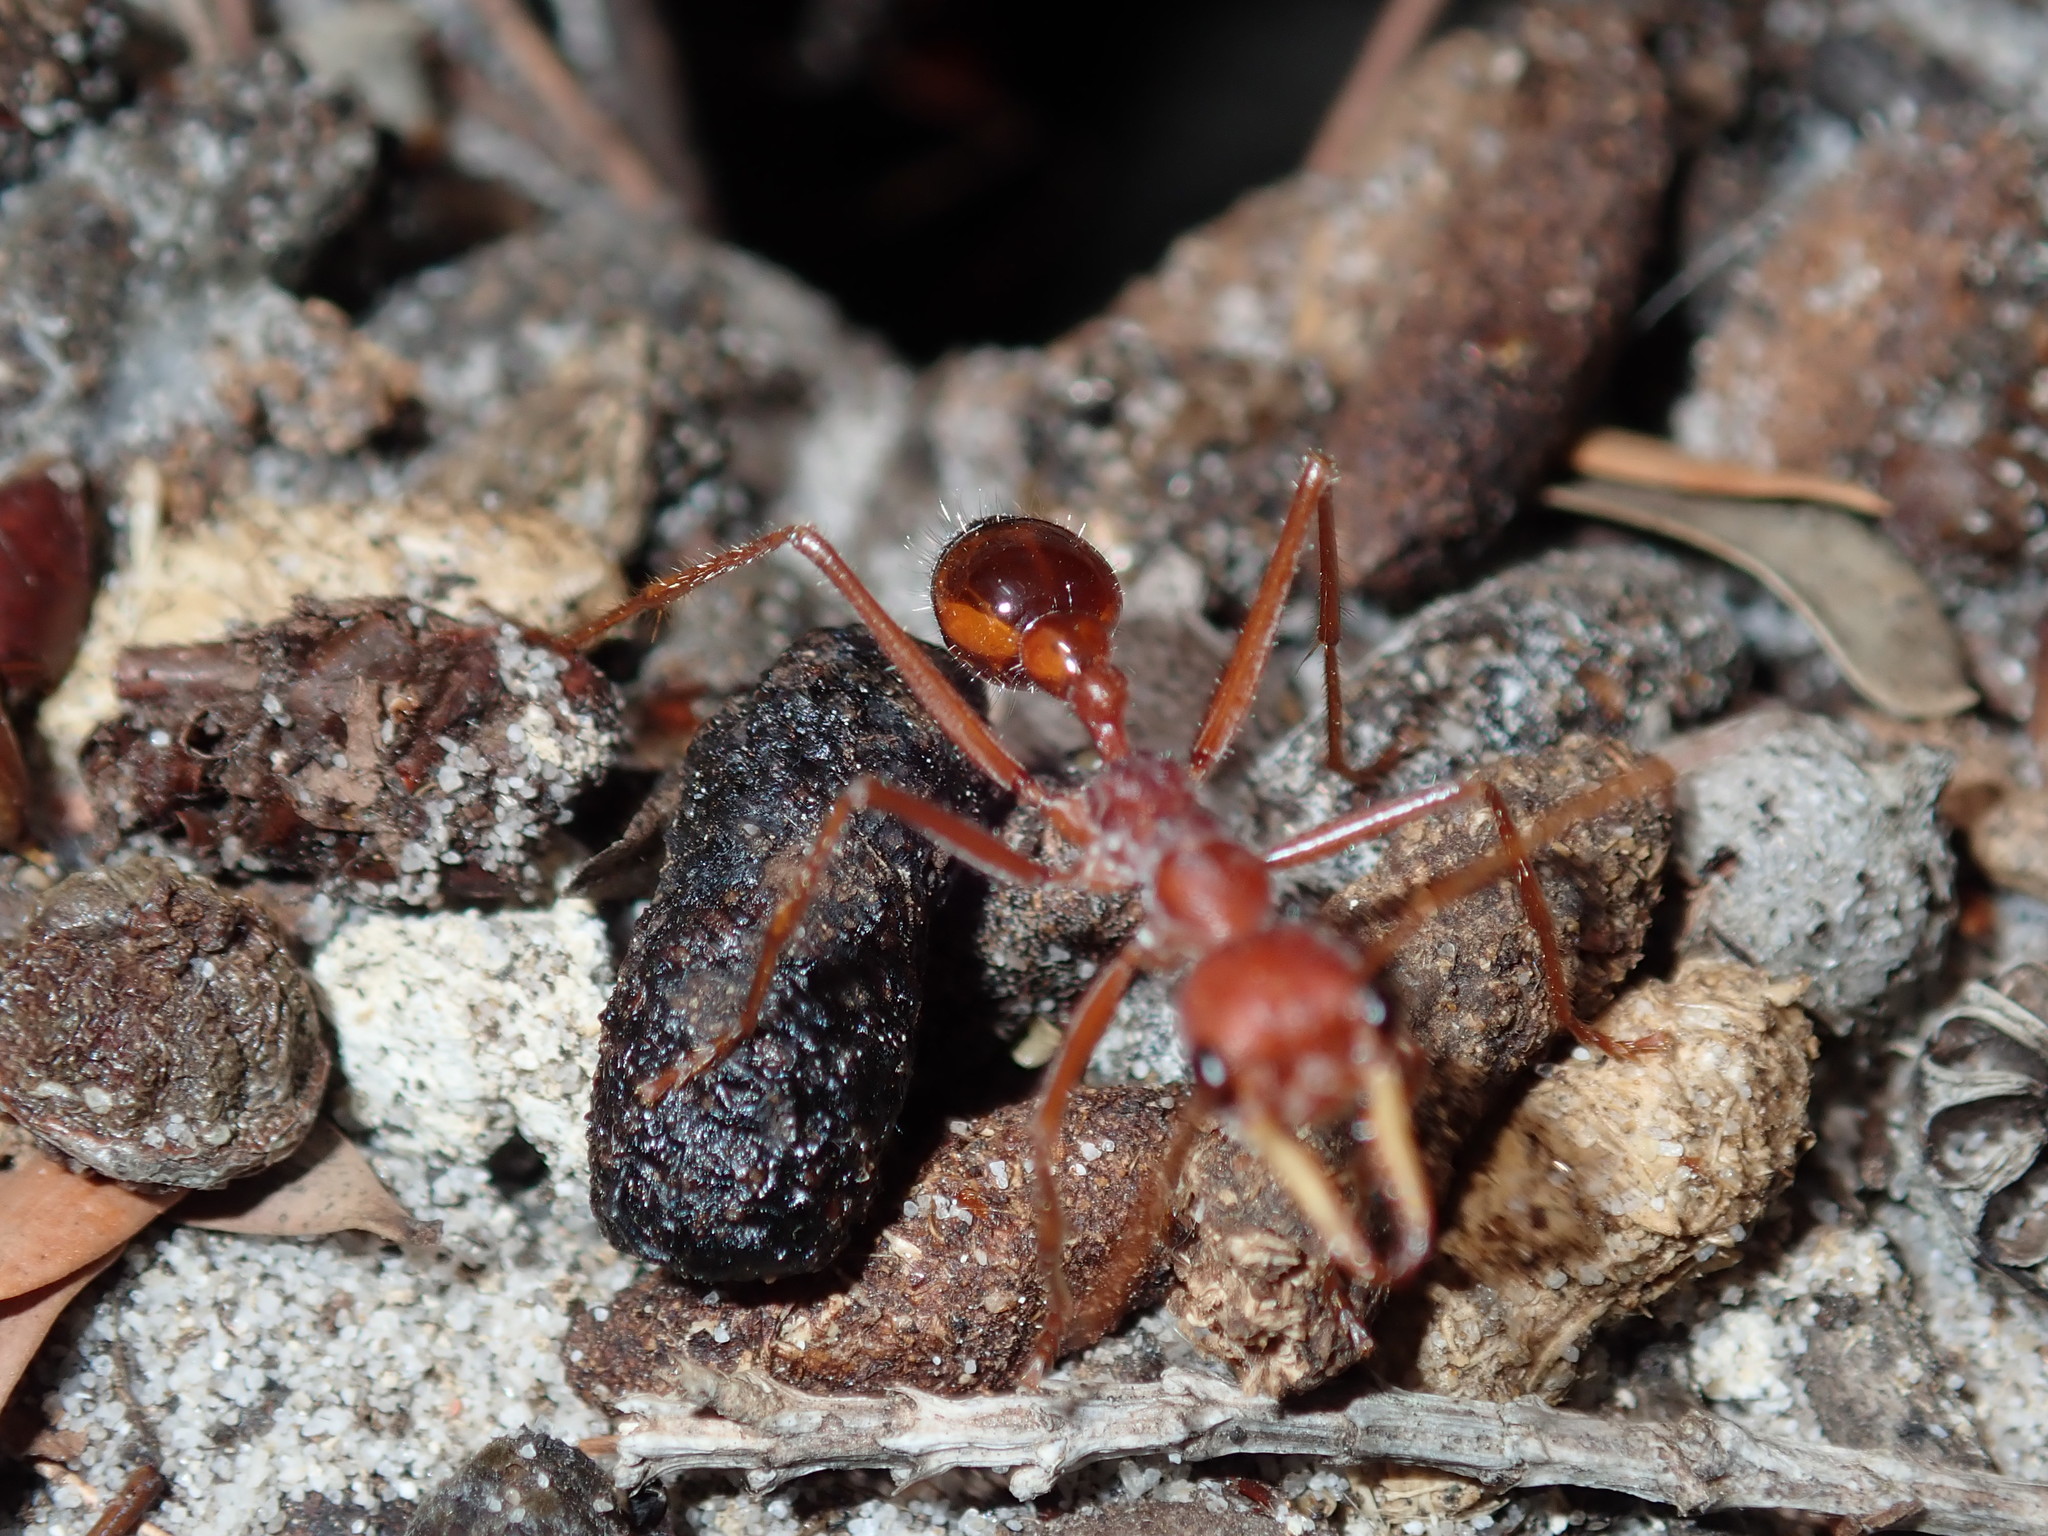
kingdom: Animalia
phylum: Arthropoda
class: Insecta
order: Hymenoptera
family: Formicidae
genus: Myrmecia
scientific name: Myrmecia gulosa
